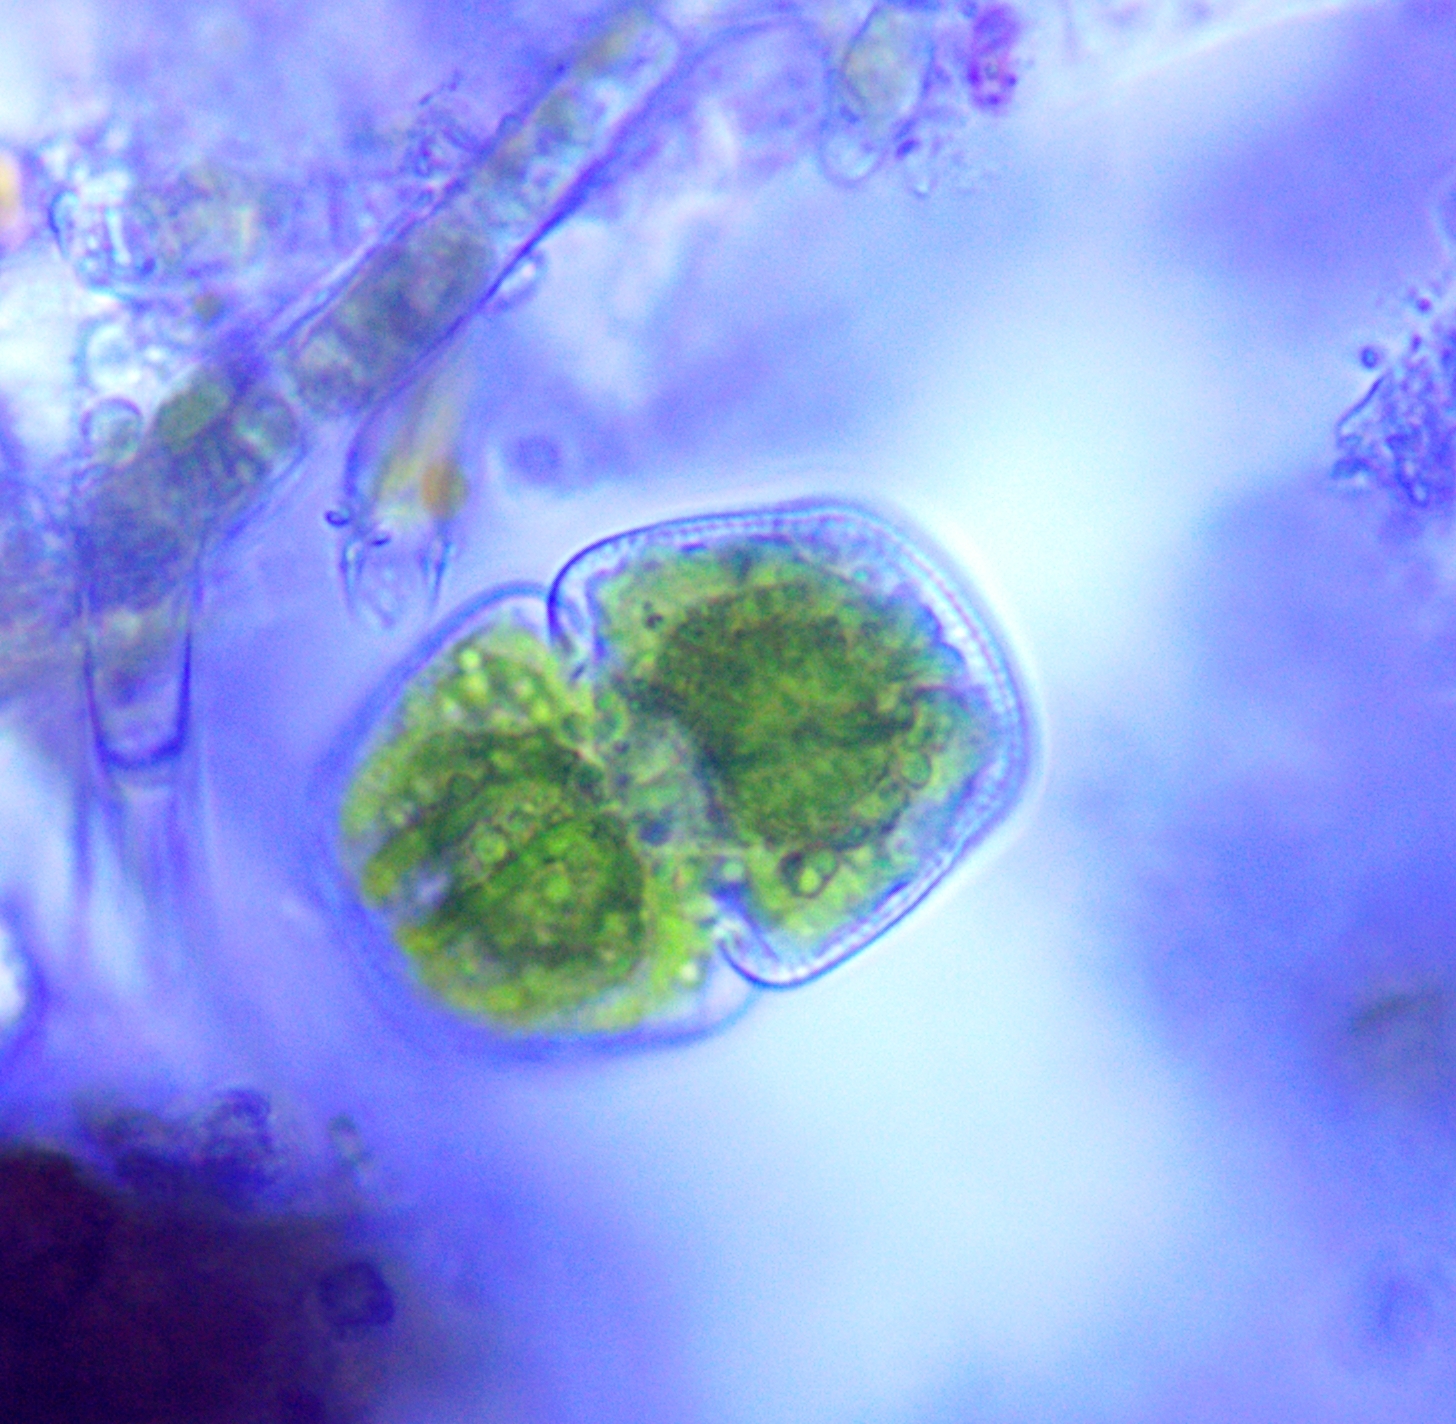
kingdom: Plantae
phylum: Charophyta
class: Conjugatophyceae
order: Desmidiales
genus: Cosmarium
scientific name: Cosmarium holmiense
